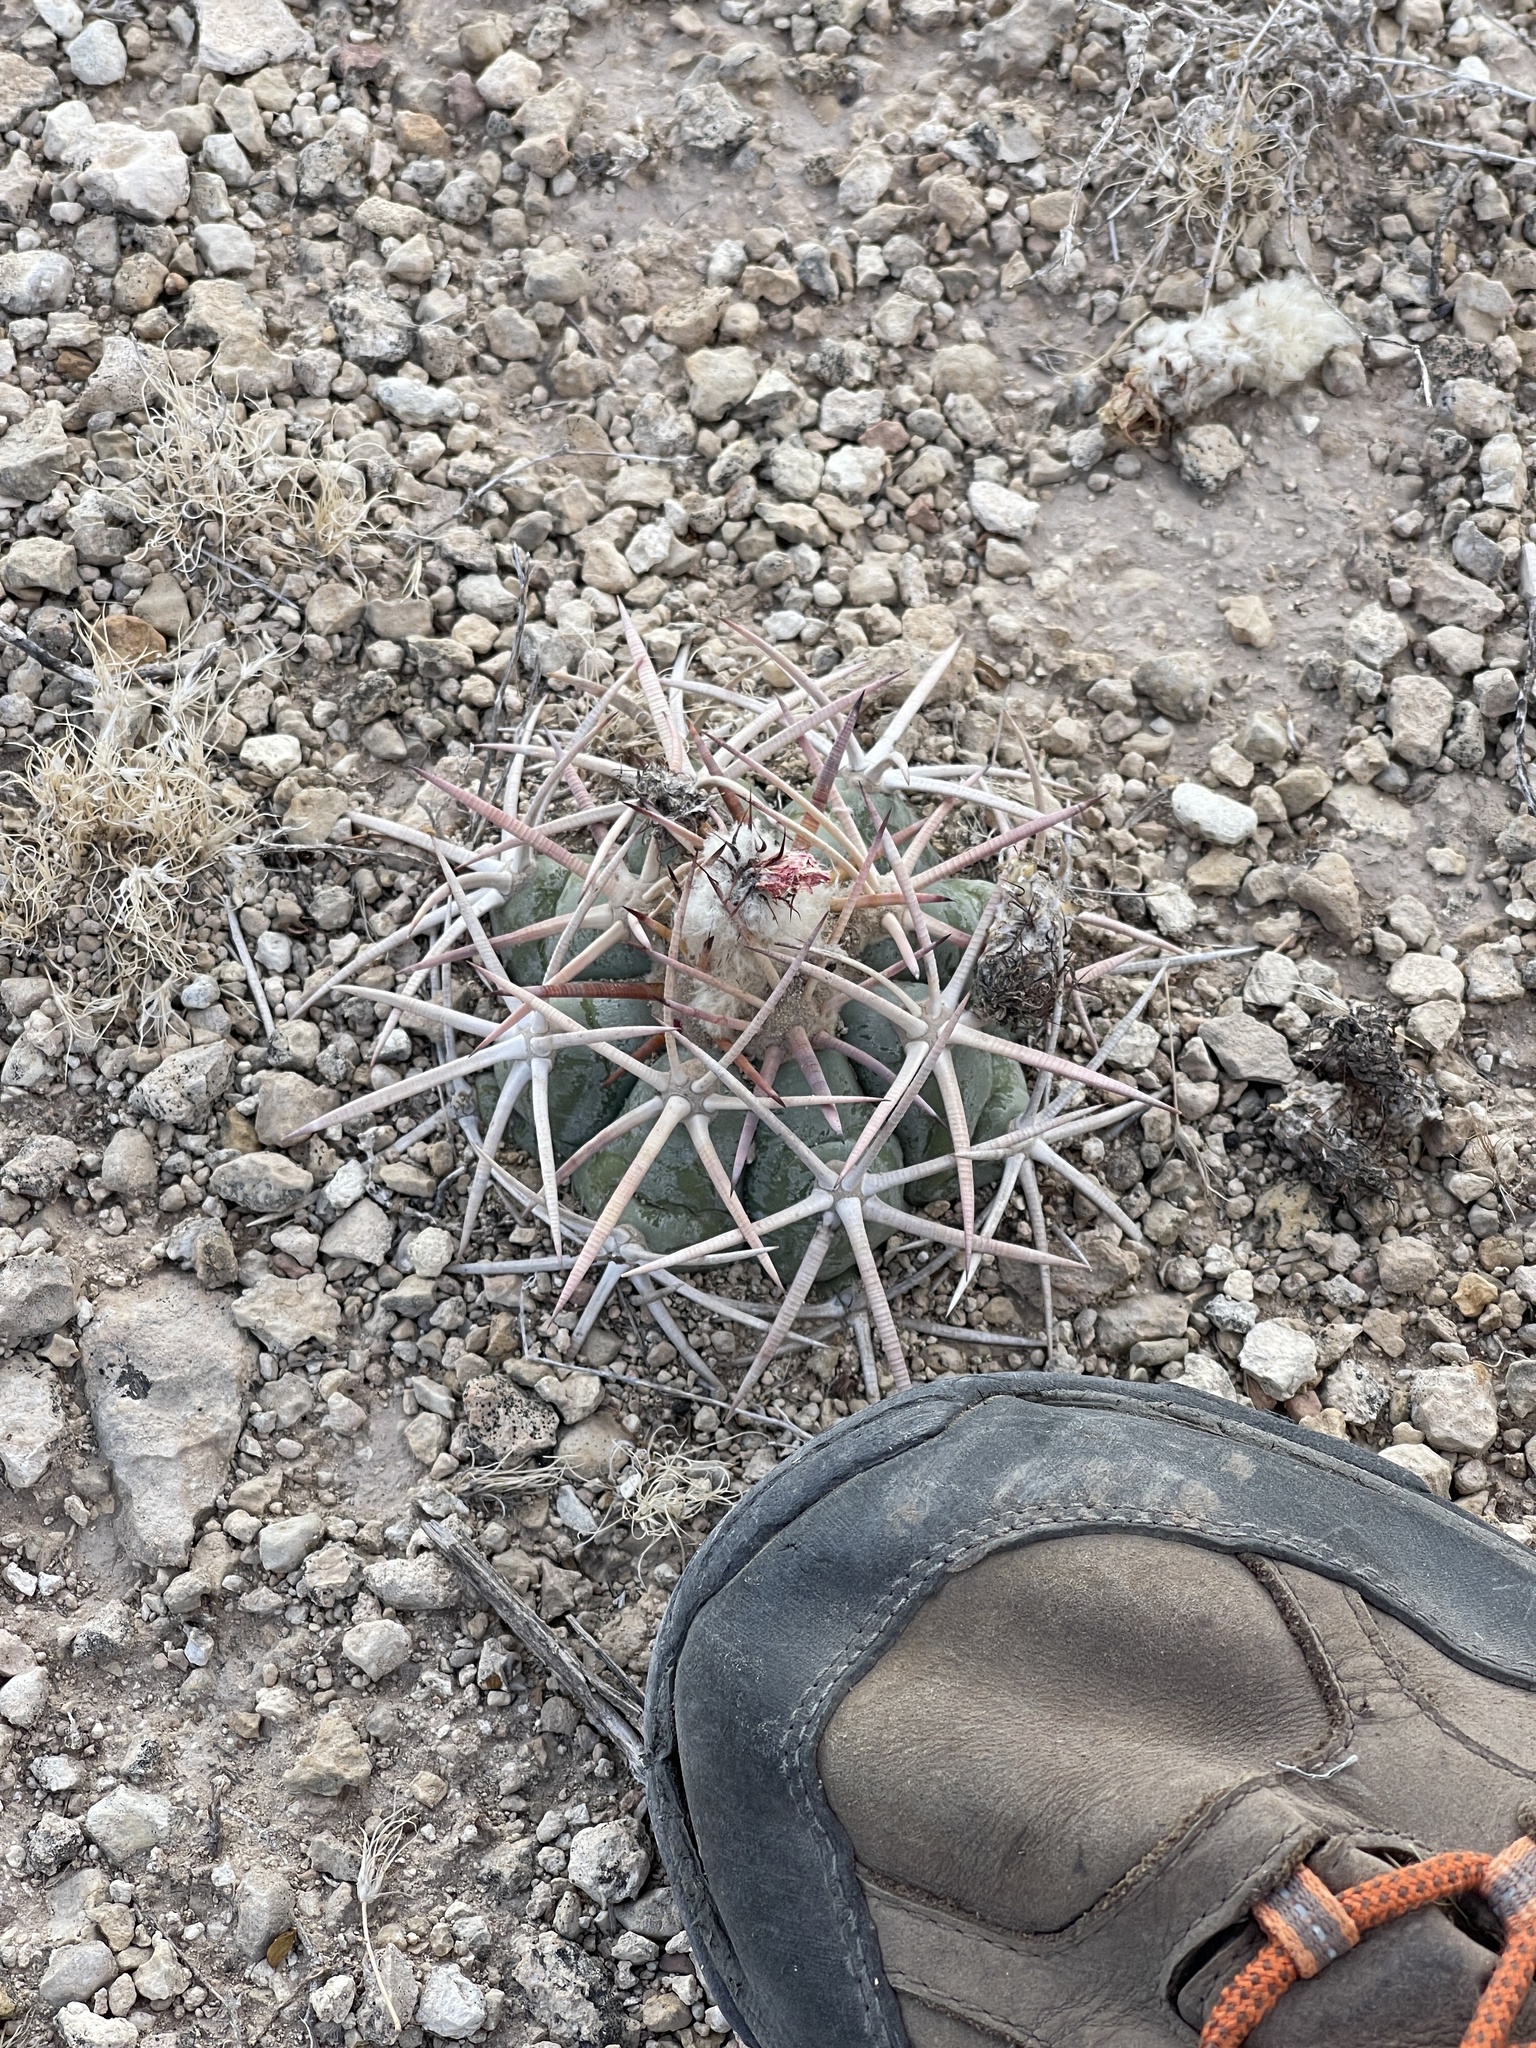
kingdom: Plantae
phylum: Tracheophyta
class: Magnoliopsida
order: Caryophyllales
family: Cactaceae
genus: Echinocactus
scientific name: Echinocactus horizonthalonius
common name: Devilshead
